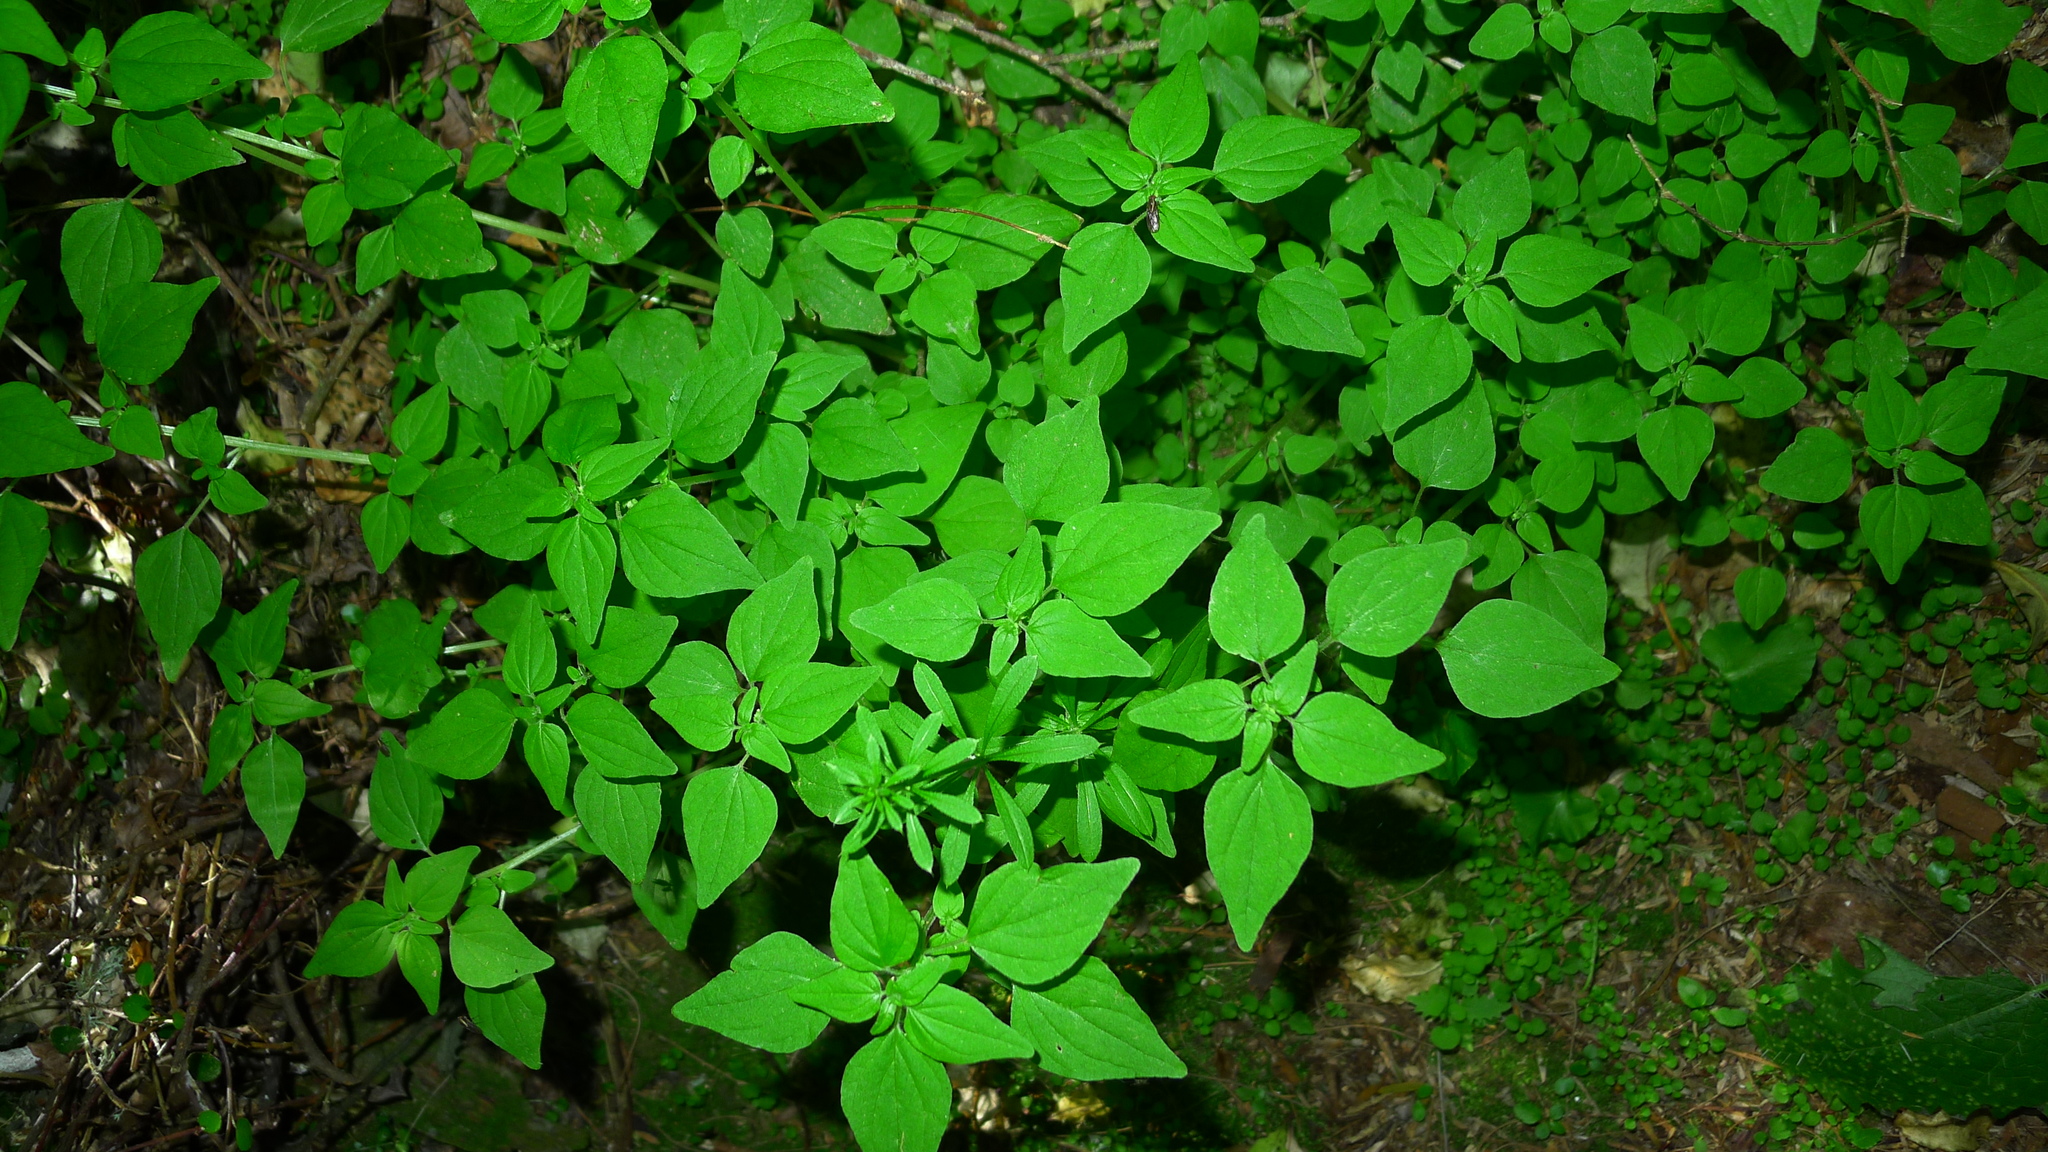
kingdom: Plantae
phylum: Tracheophyta
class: Magnoliopsida
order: Rosales
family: Urticaceae
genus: Parietaria
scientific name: Parietaria debilis
